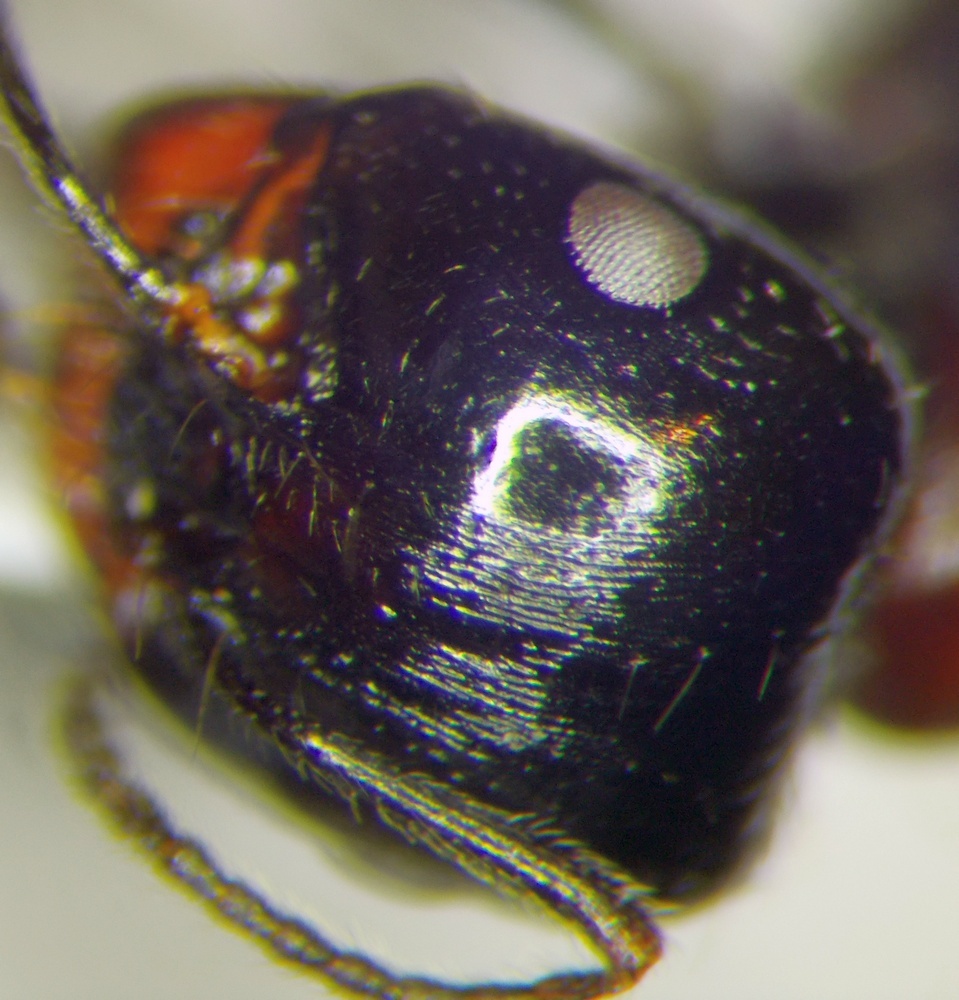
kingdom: Animalia
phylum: Arthropoda
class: Insecta
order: Hymenoptera
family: Formicidae
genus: Messor
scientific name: Messor denticulatus
